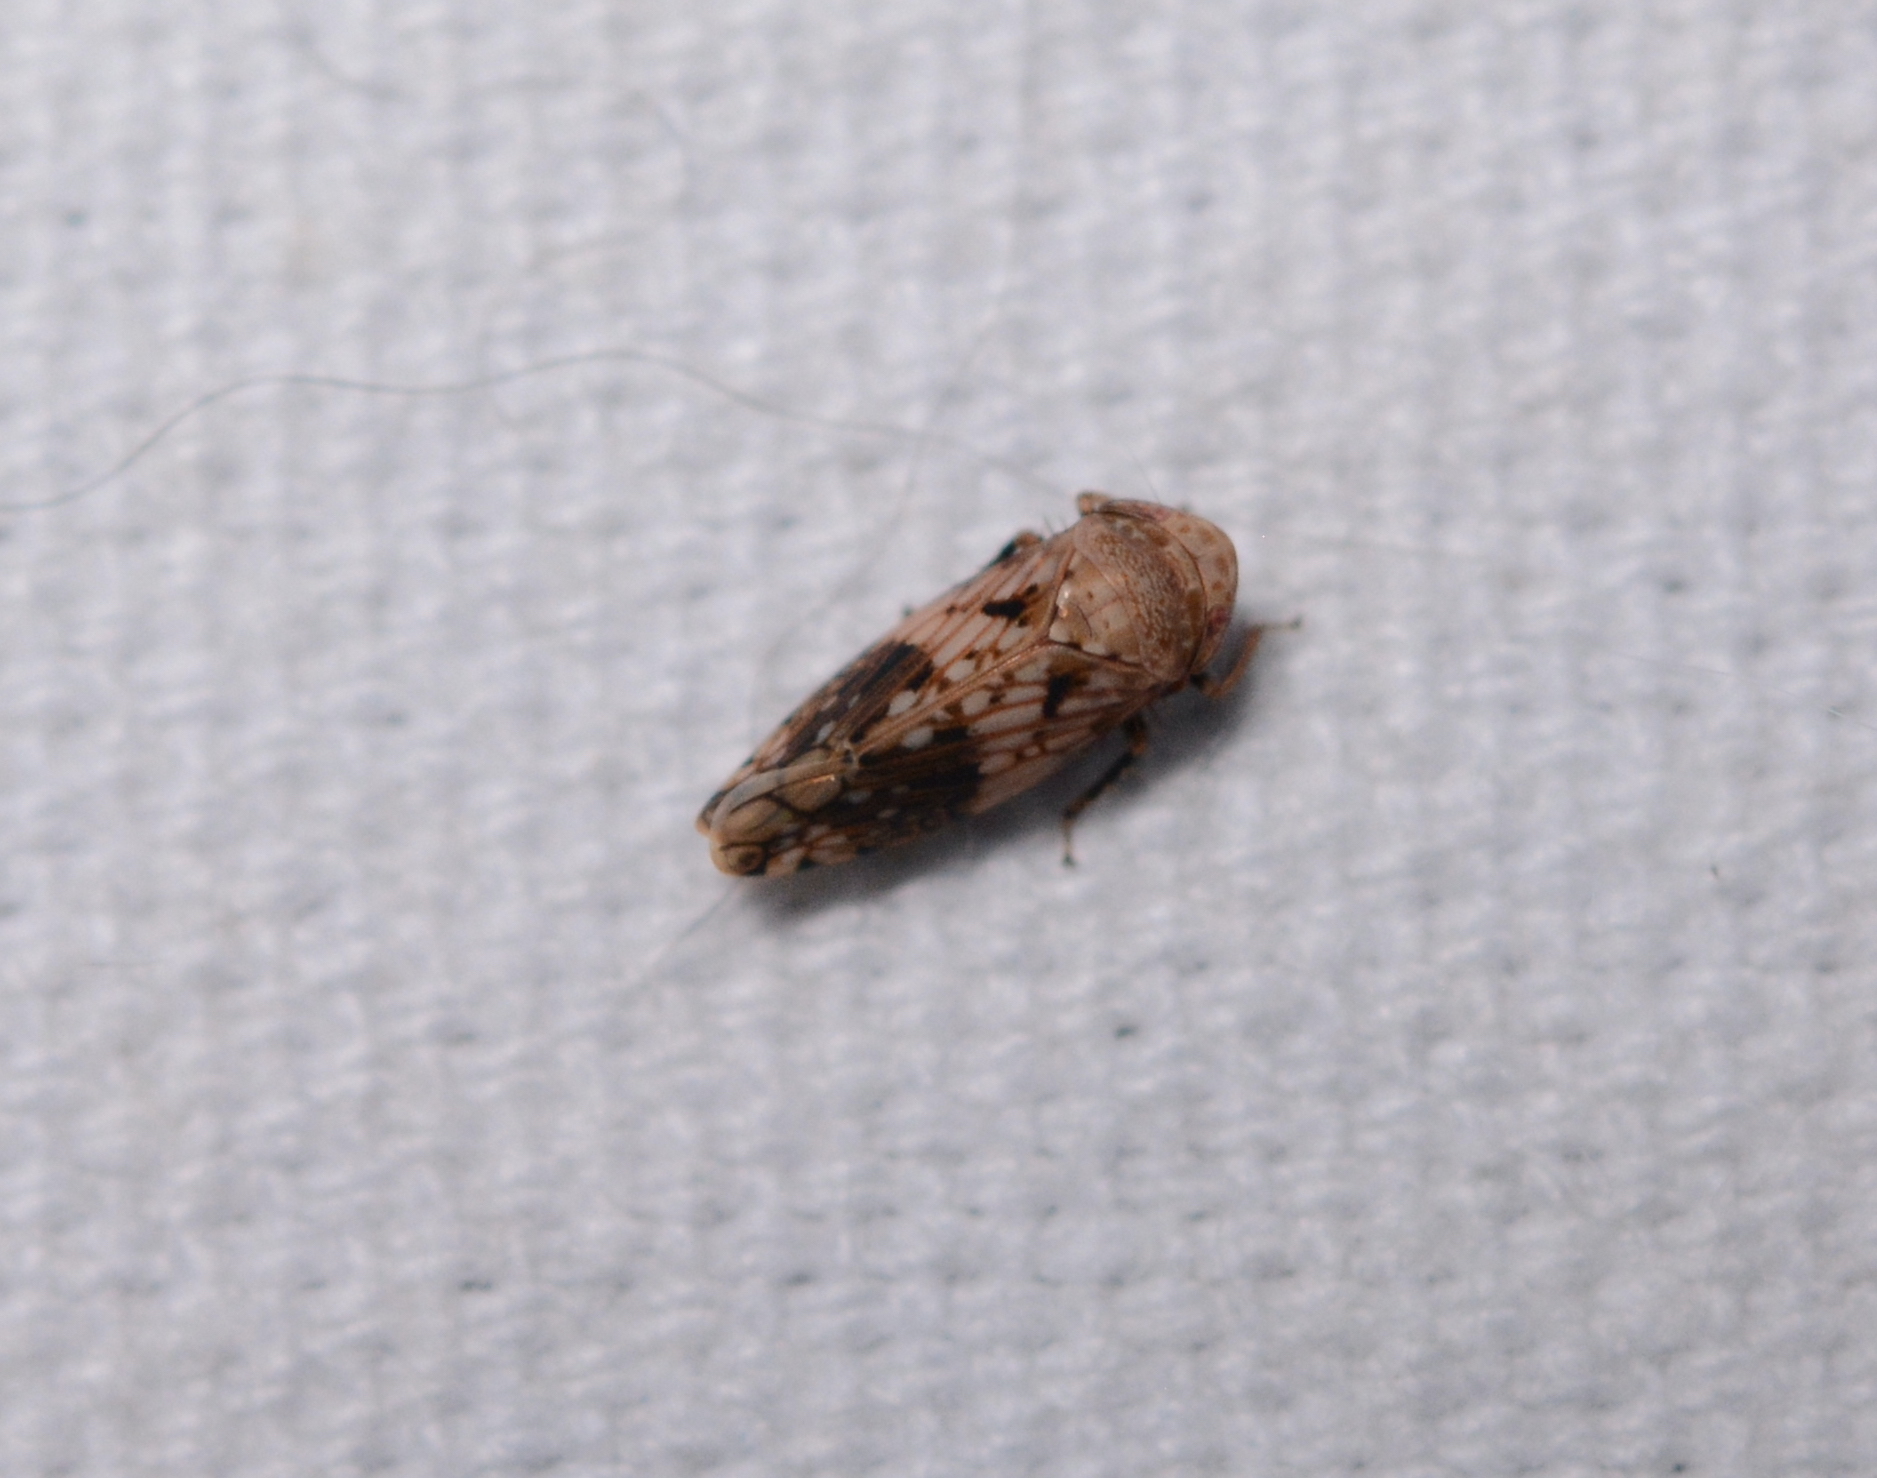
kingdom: Animalia
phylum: Arthropoda
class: Insecta
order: Hemiptera
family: Cicadellidae
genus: Menosoma
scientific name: Menosoma cinctum
